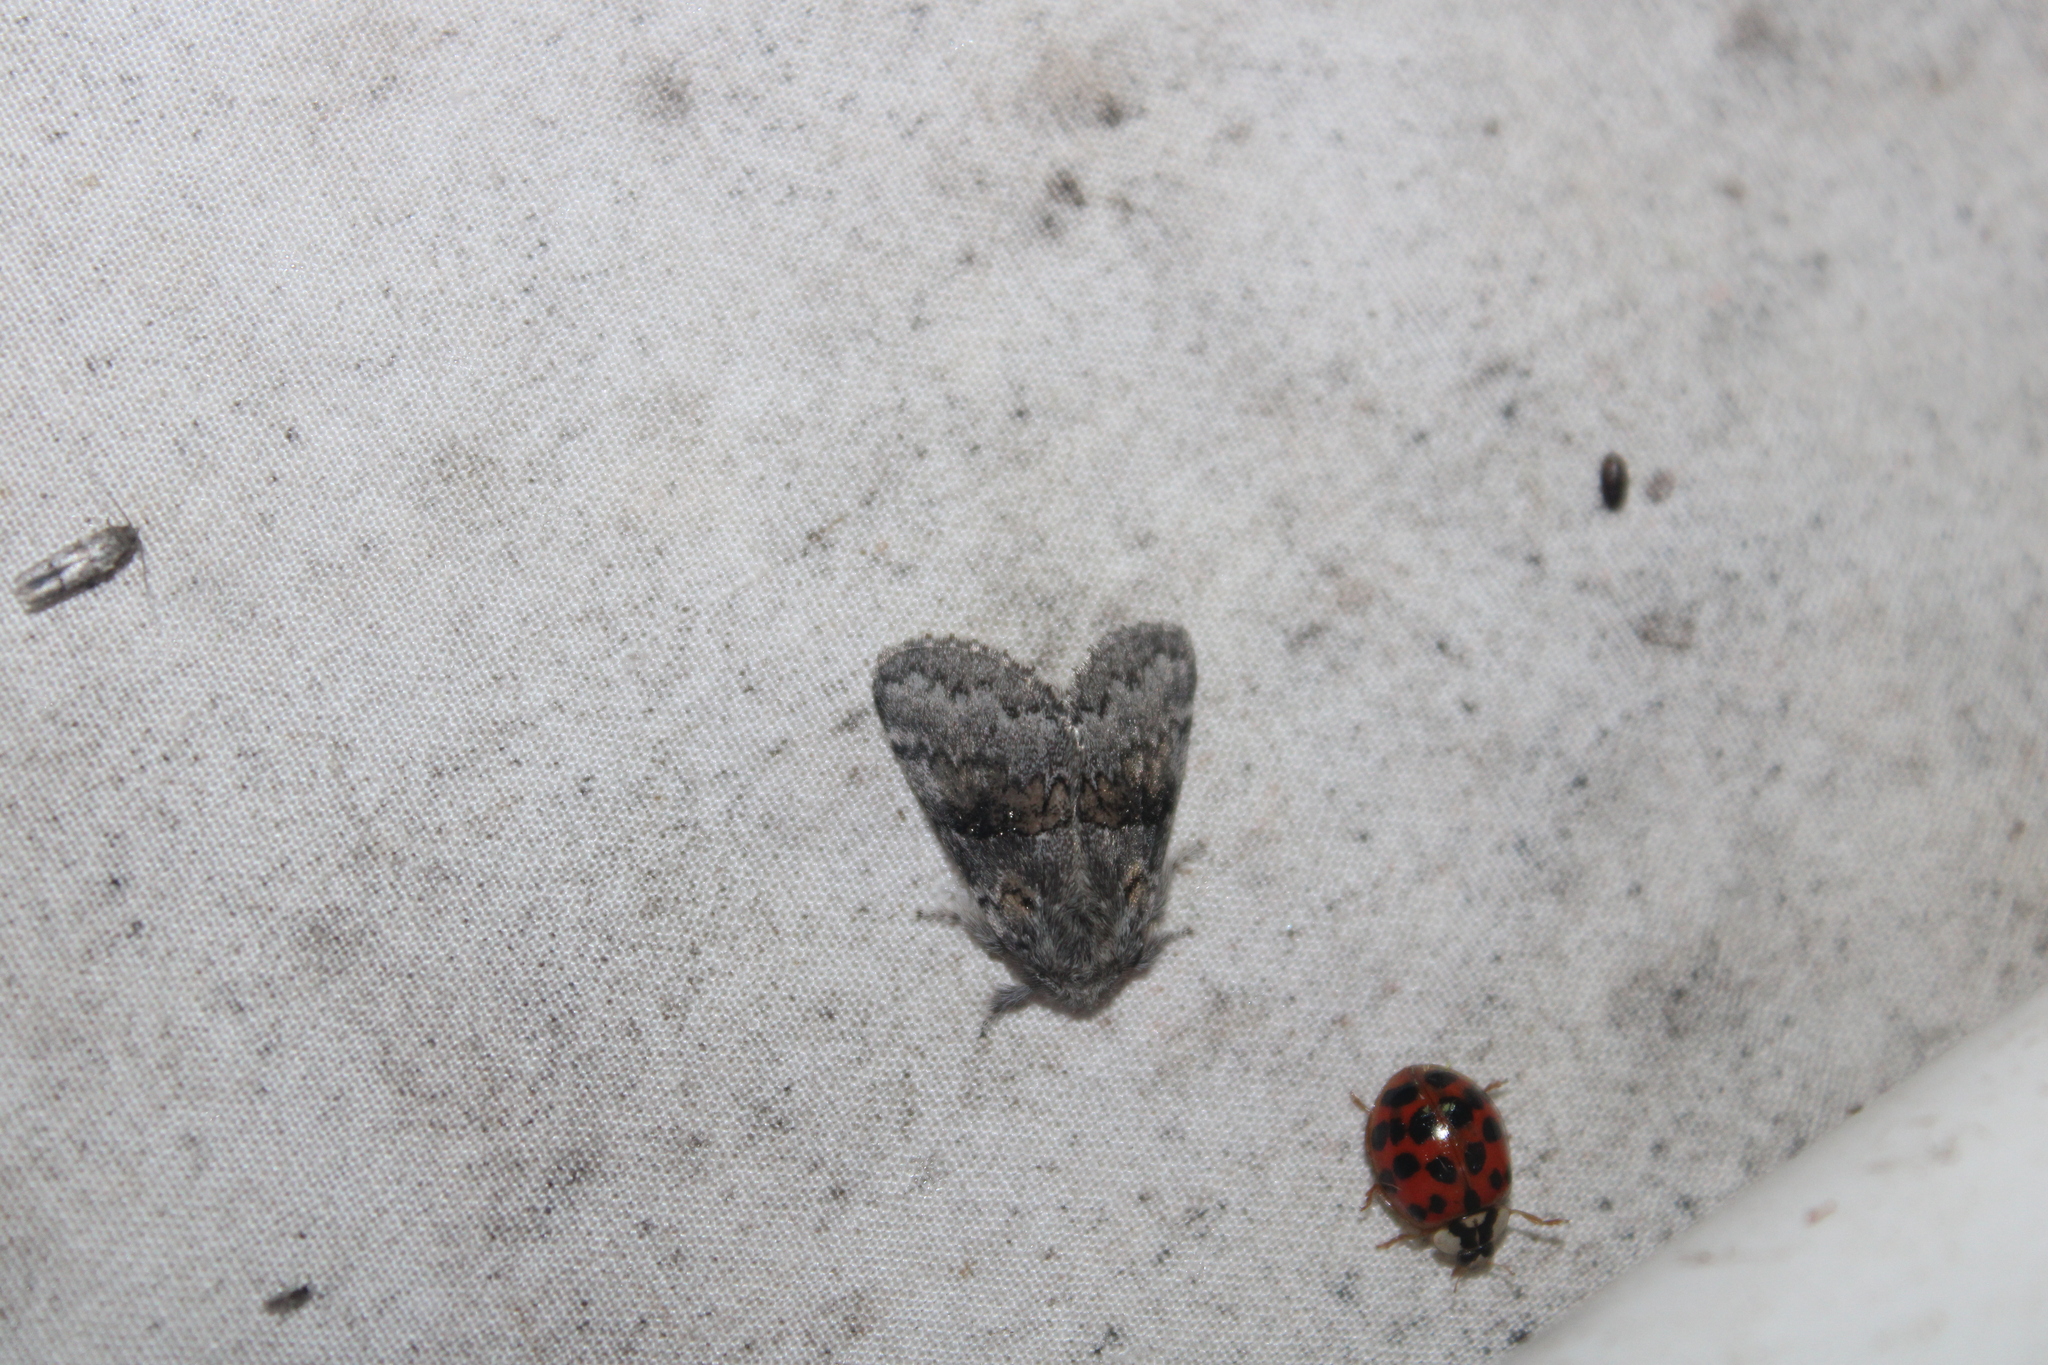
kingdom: Animalia
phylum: Arthropoda
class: Insecta
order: Lepidoptera
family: Notodontidae
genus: Gluphisia
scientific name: Gluphisia septentrionis
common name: Common gluphisia
